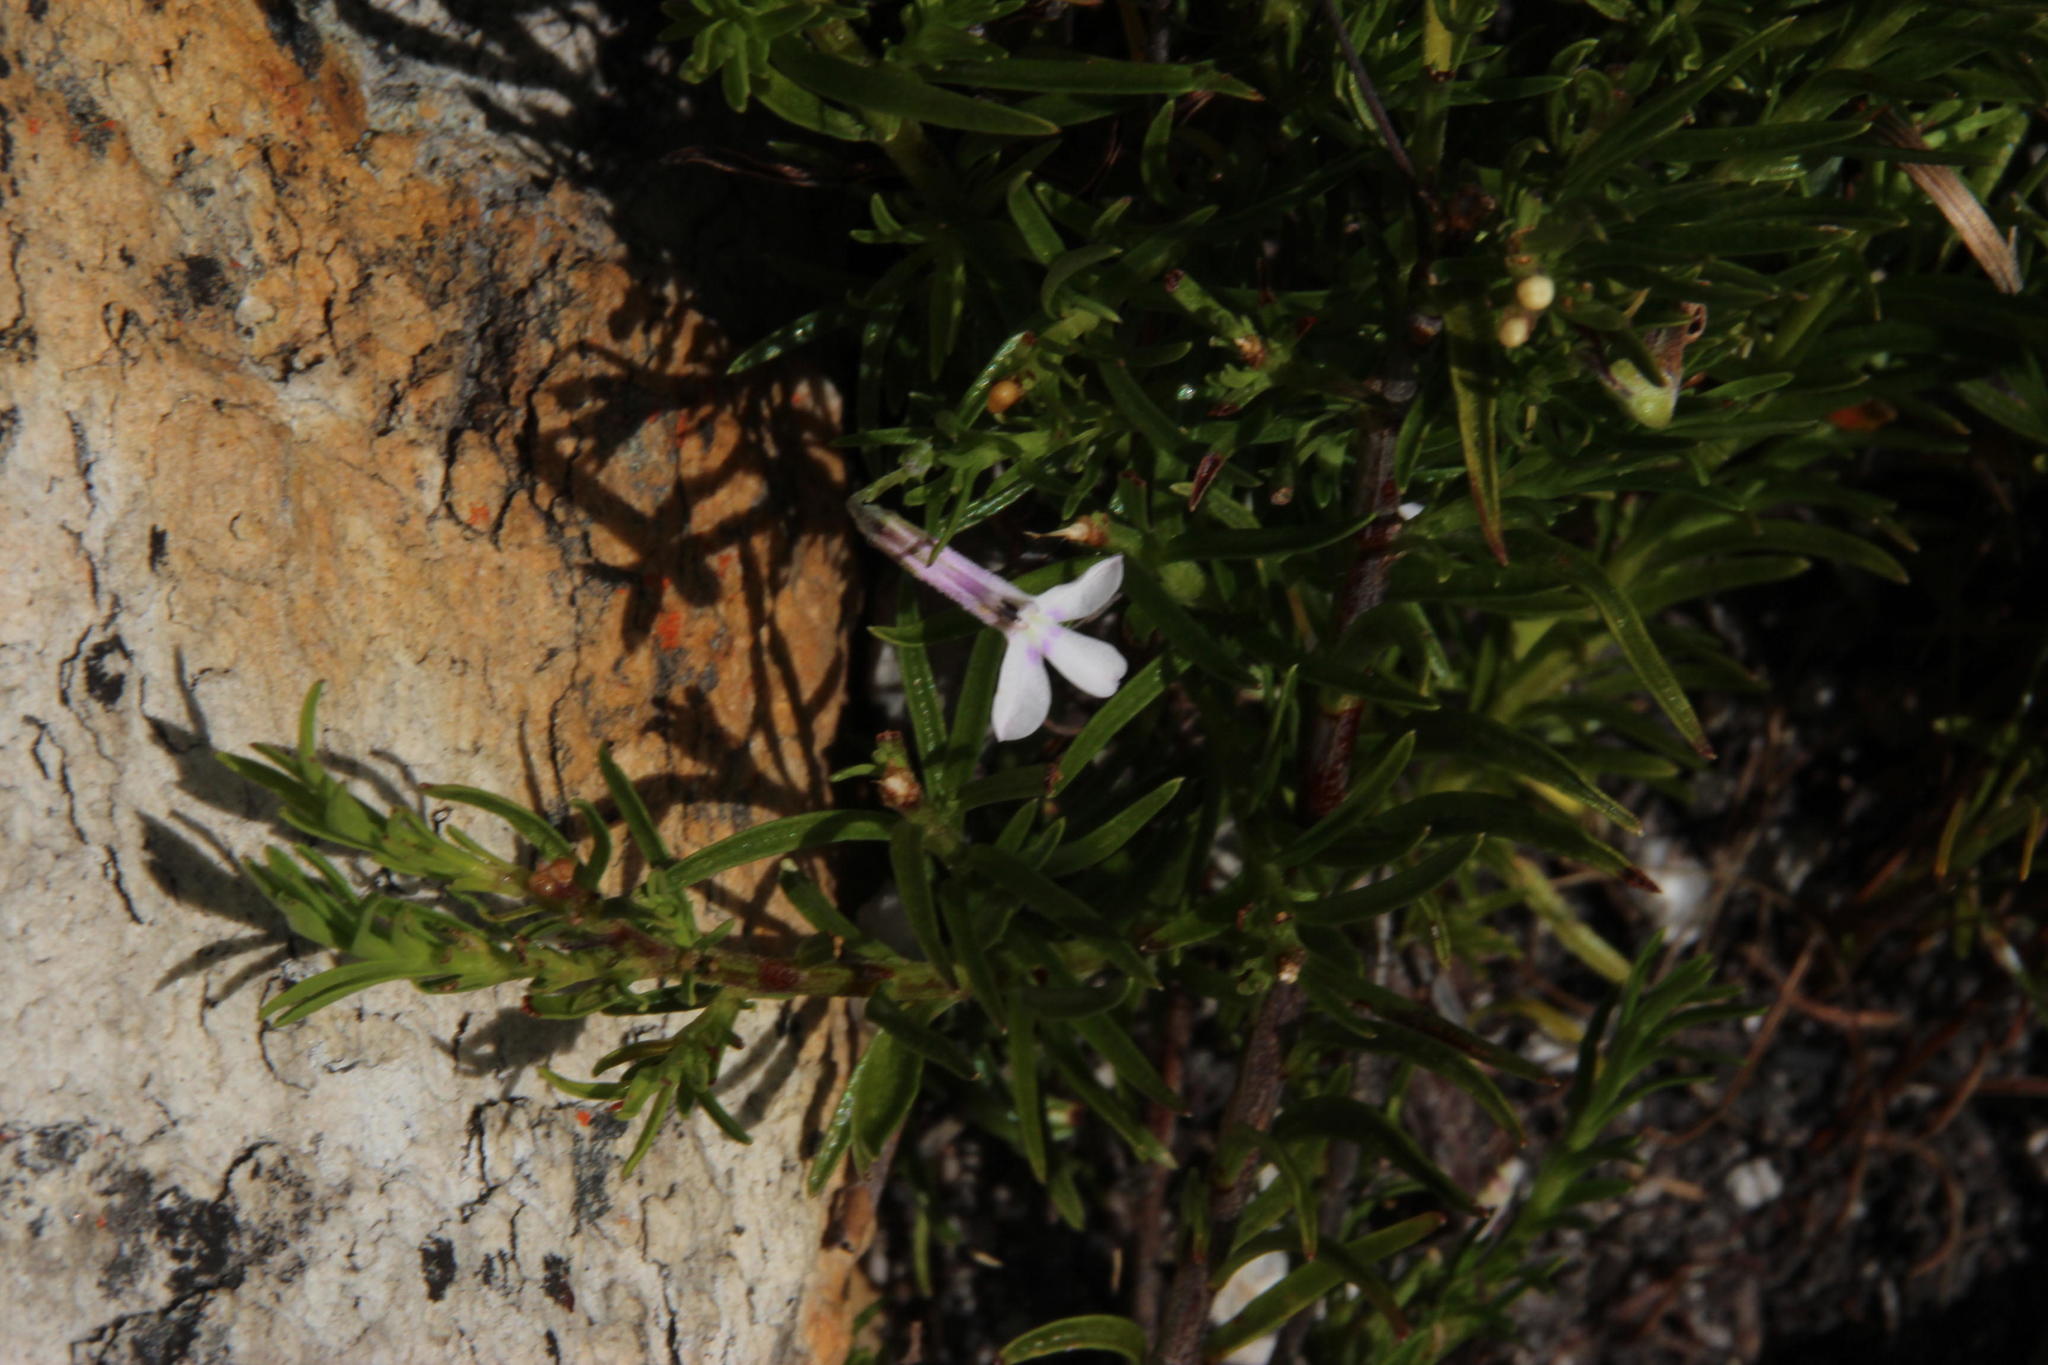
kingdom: Plantae
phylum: Tracheophyta
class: Magnoliopsida
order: Asterales
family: Campanulaceae
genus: Lobelia
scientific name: Lobelia pinifolia
